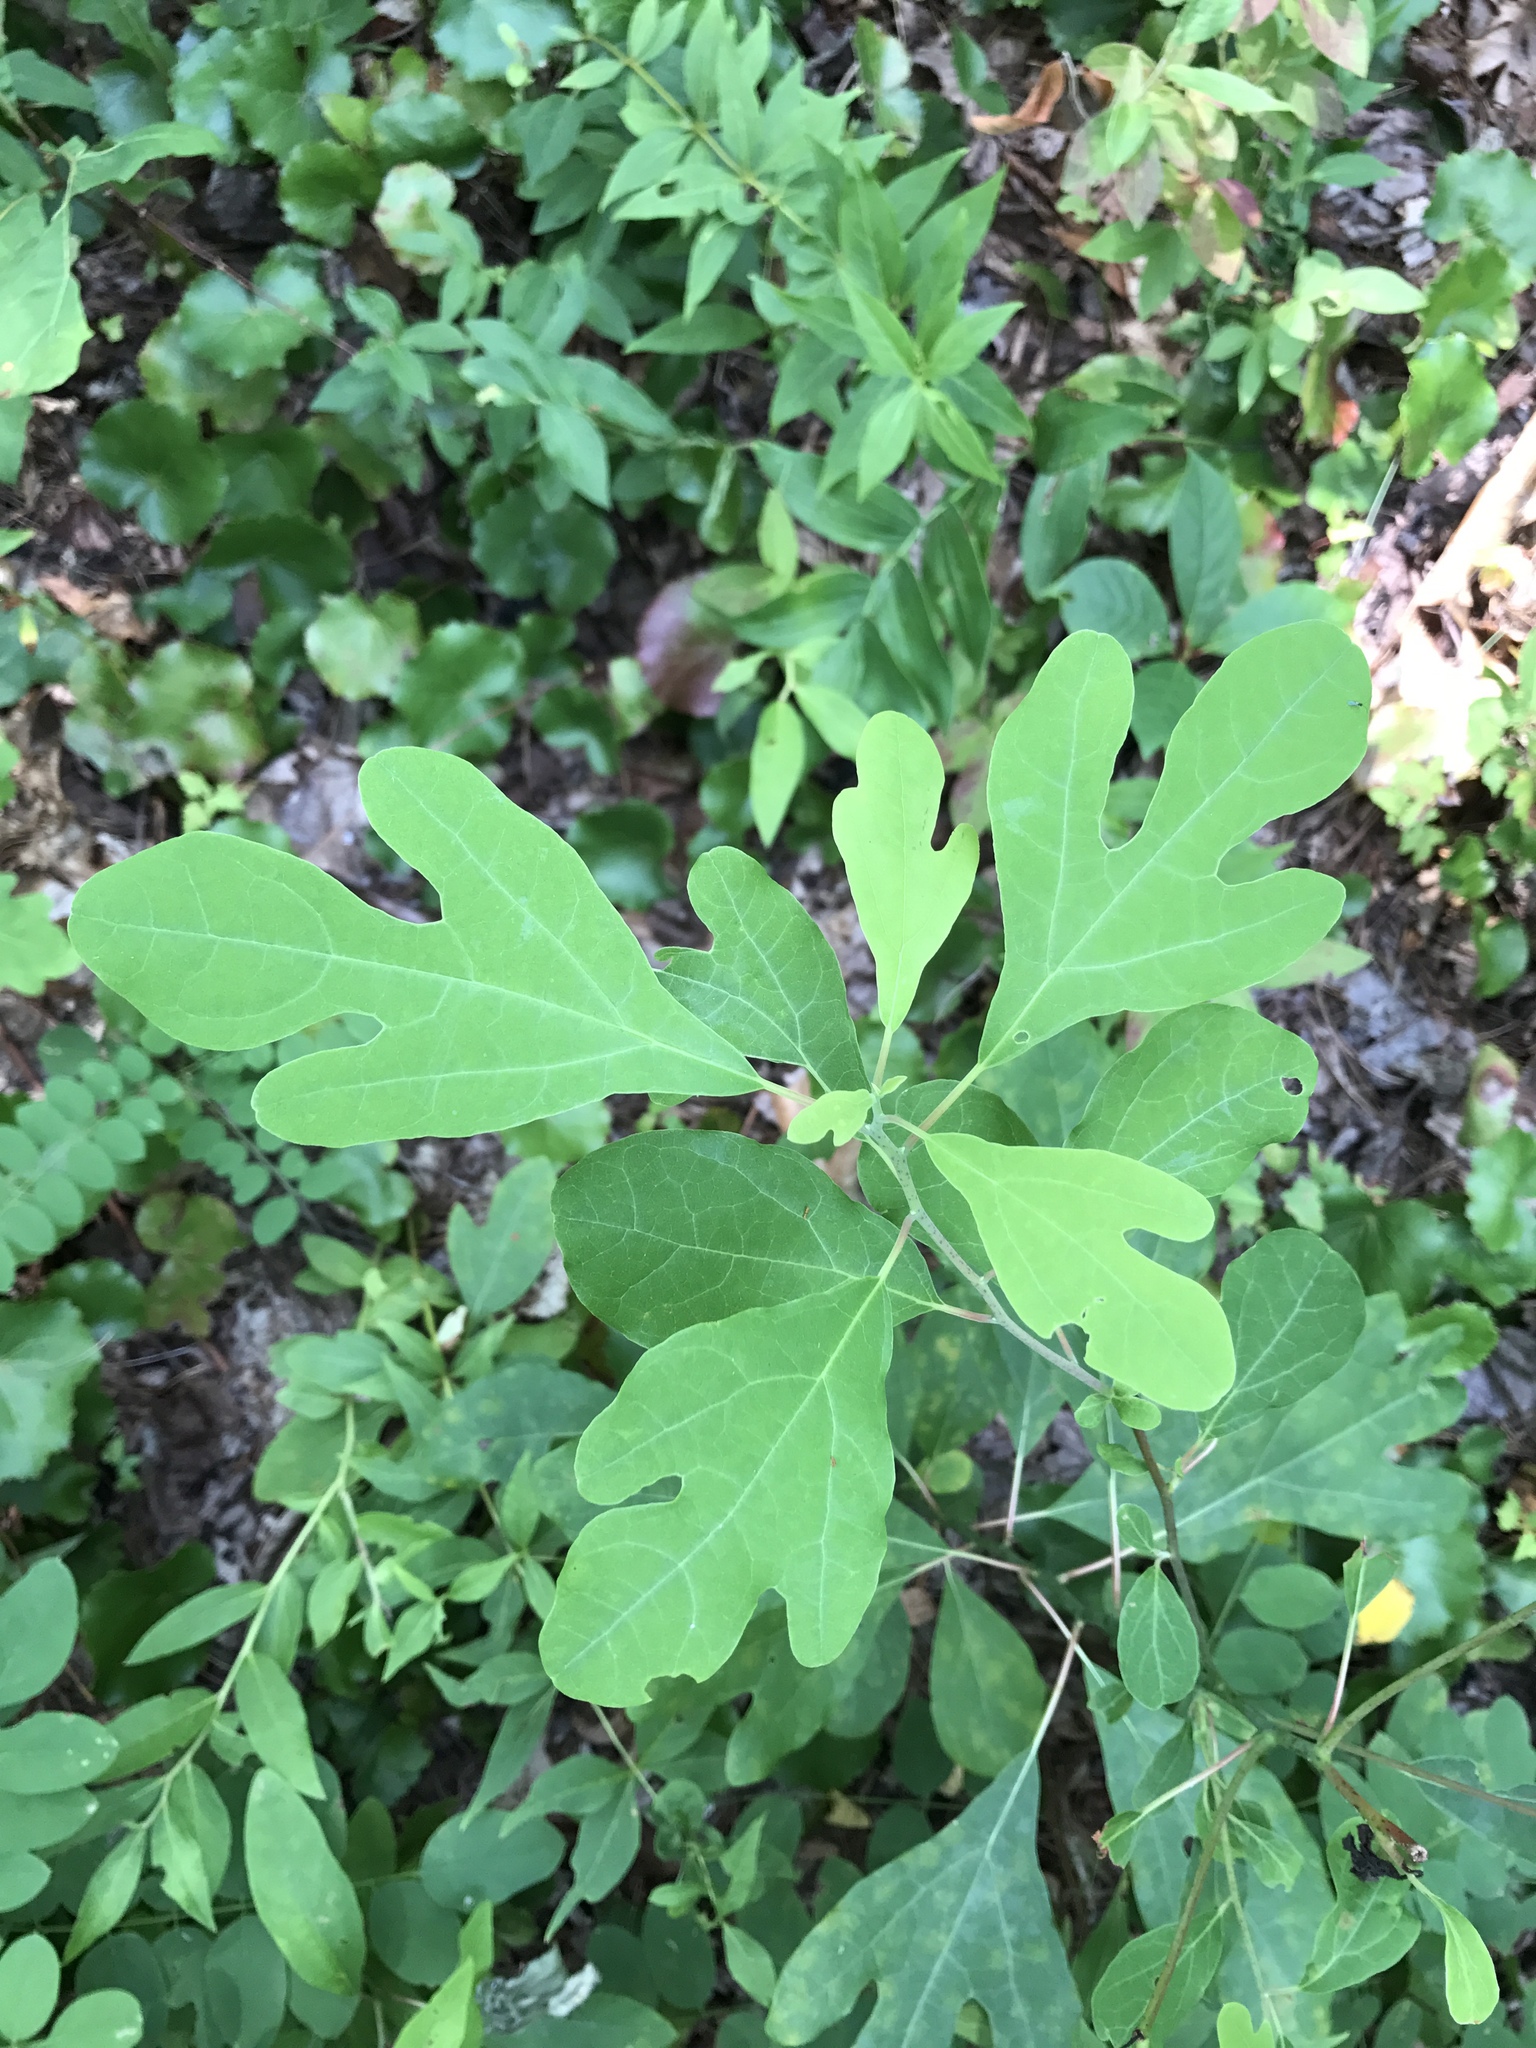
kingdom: Plantae
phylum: Tracheophyta
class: Magnoliopsida
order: Laurales
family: Lauraceae
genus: Sassafras
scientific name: Sassafras albidum
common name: Sassafras
